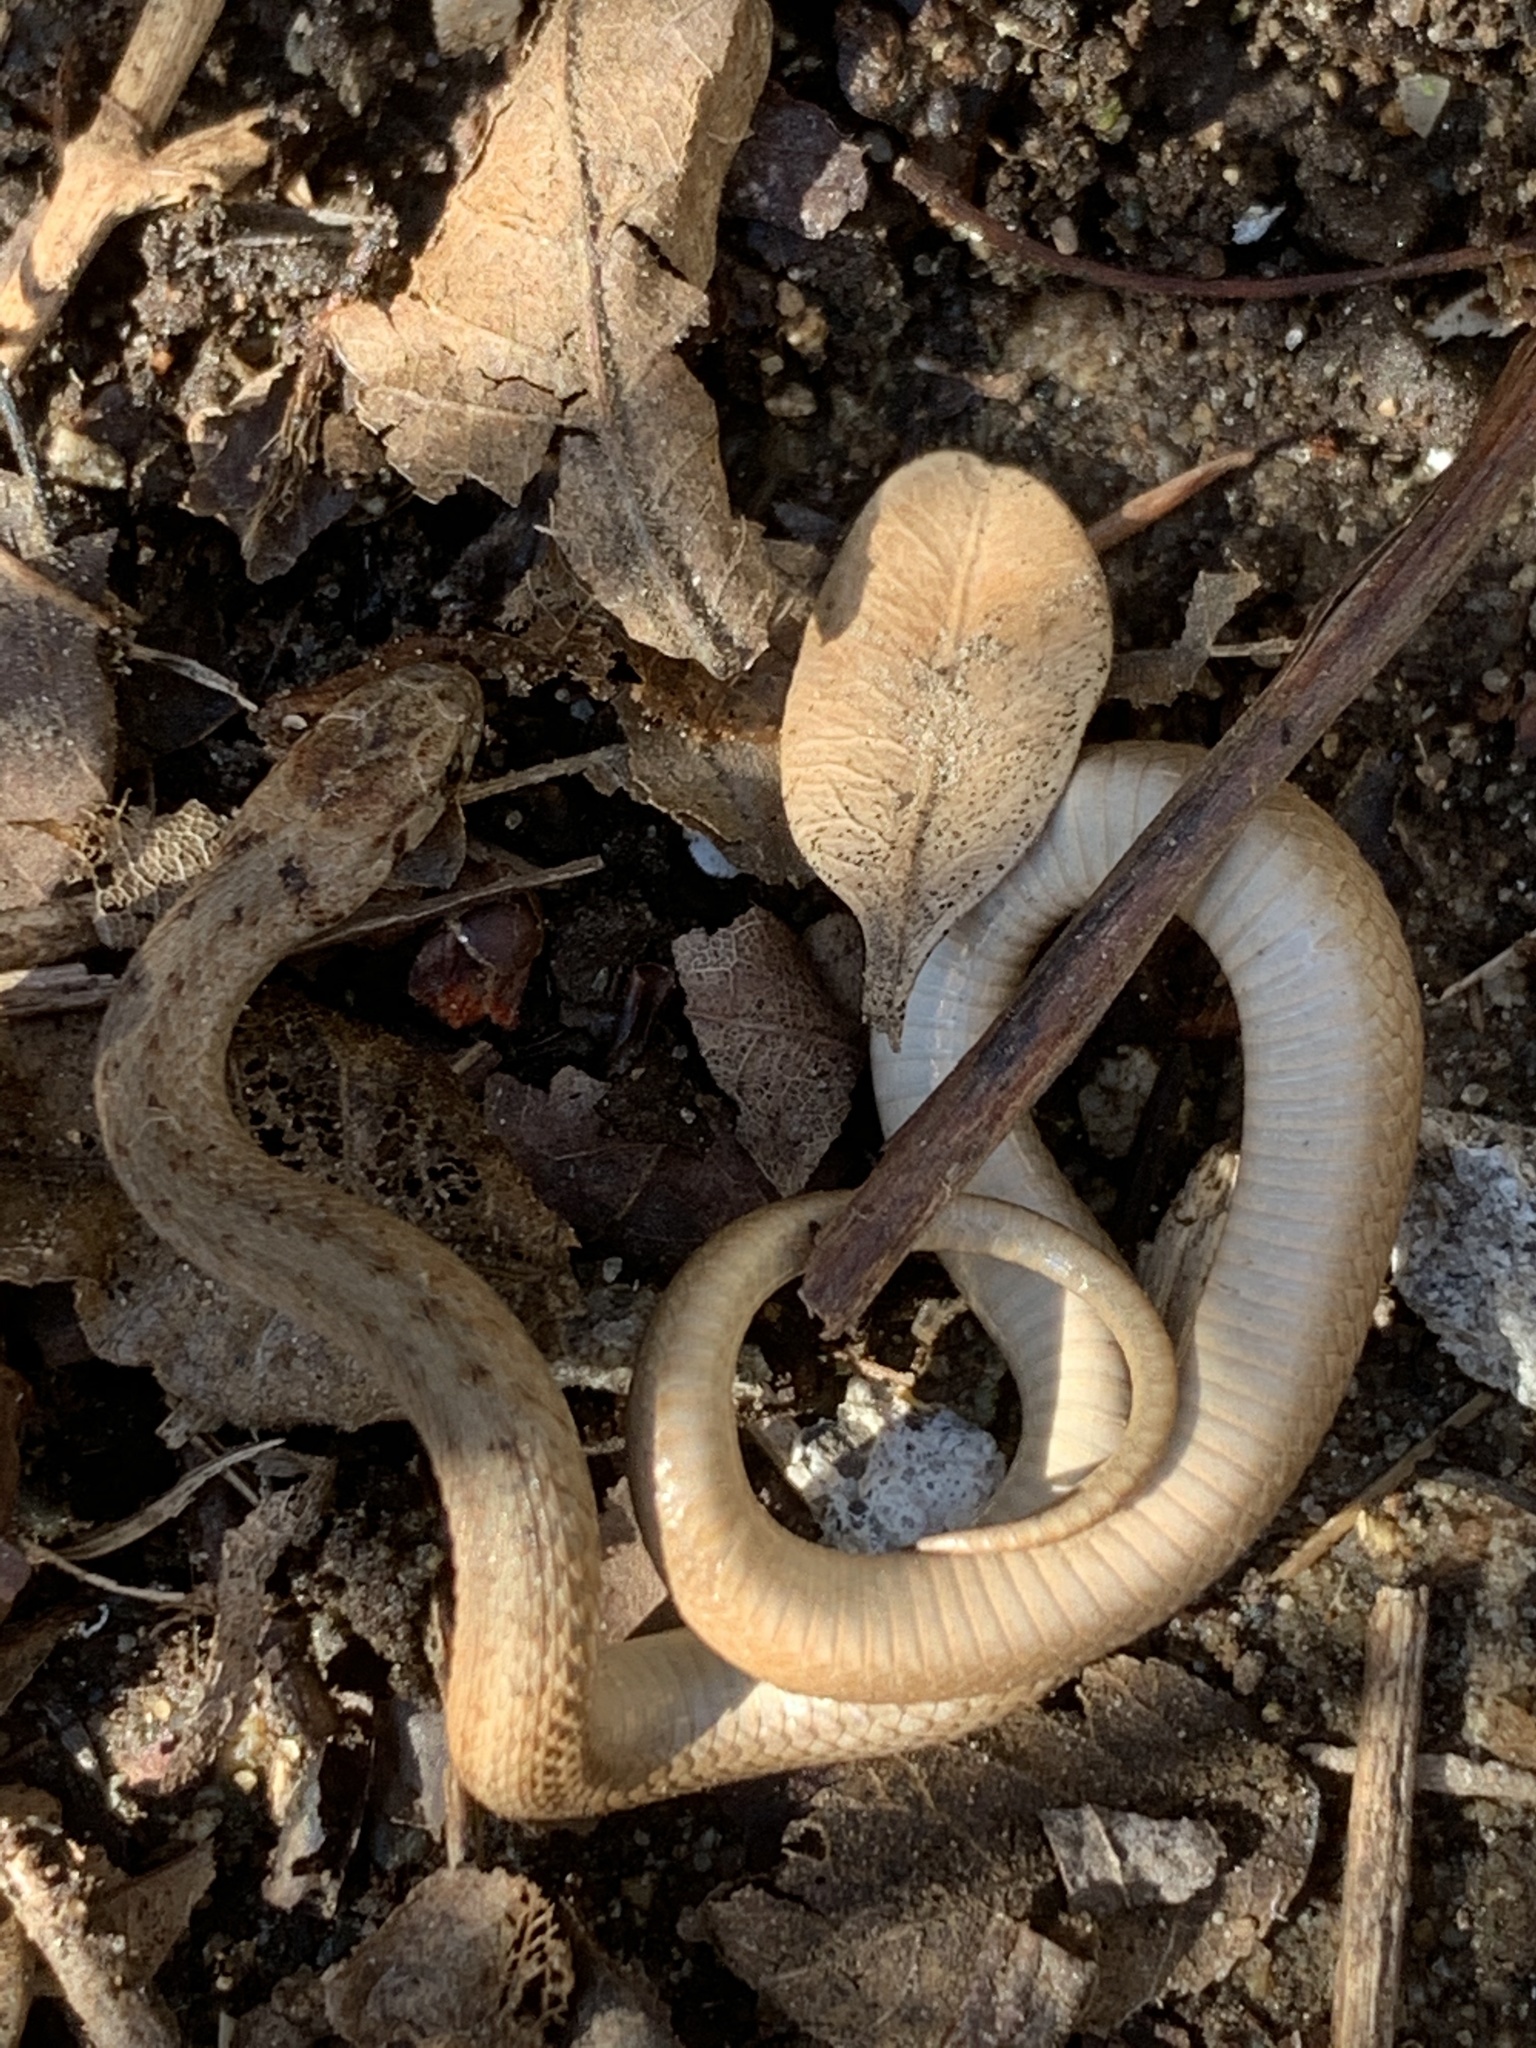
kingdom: Animalia
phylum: Chordata
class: Squamata
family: Colubridae
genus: Storeria
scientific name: Storeria dekayi
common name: (dekay’s) brown snake
